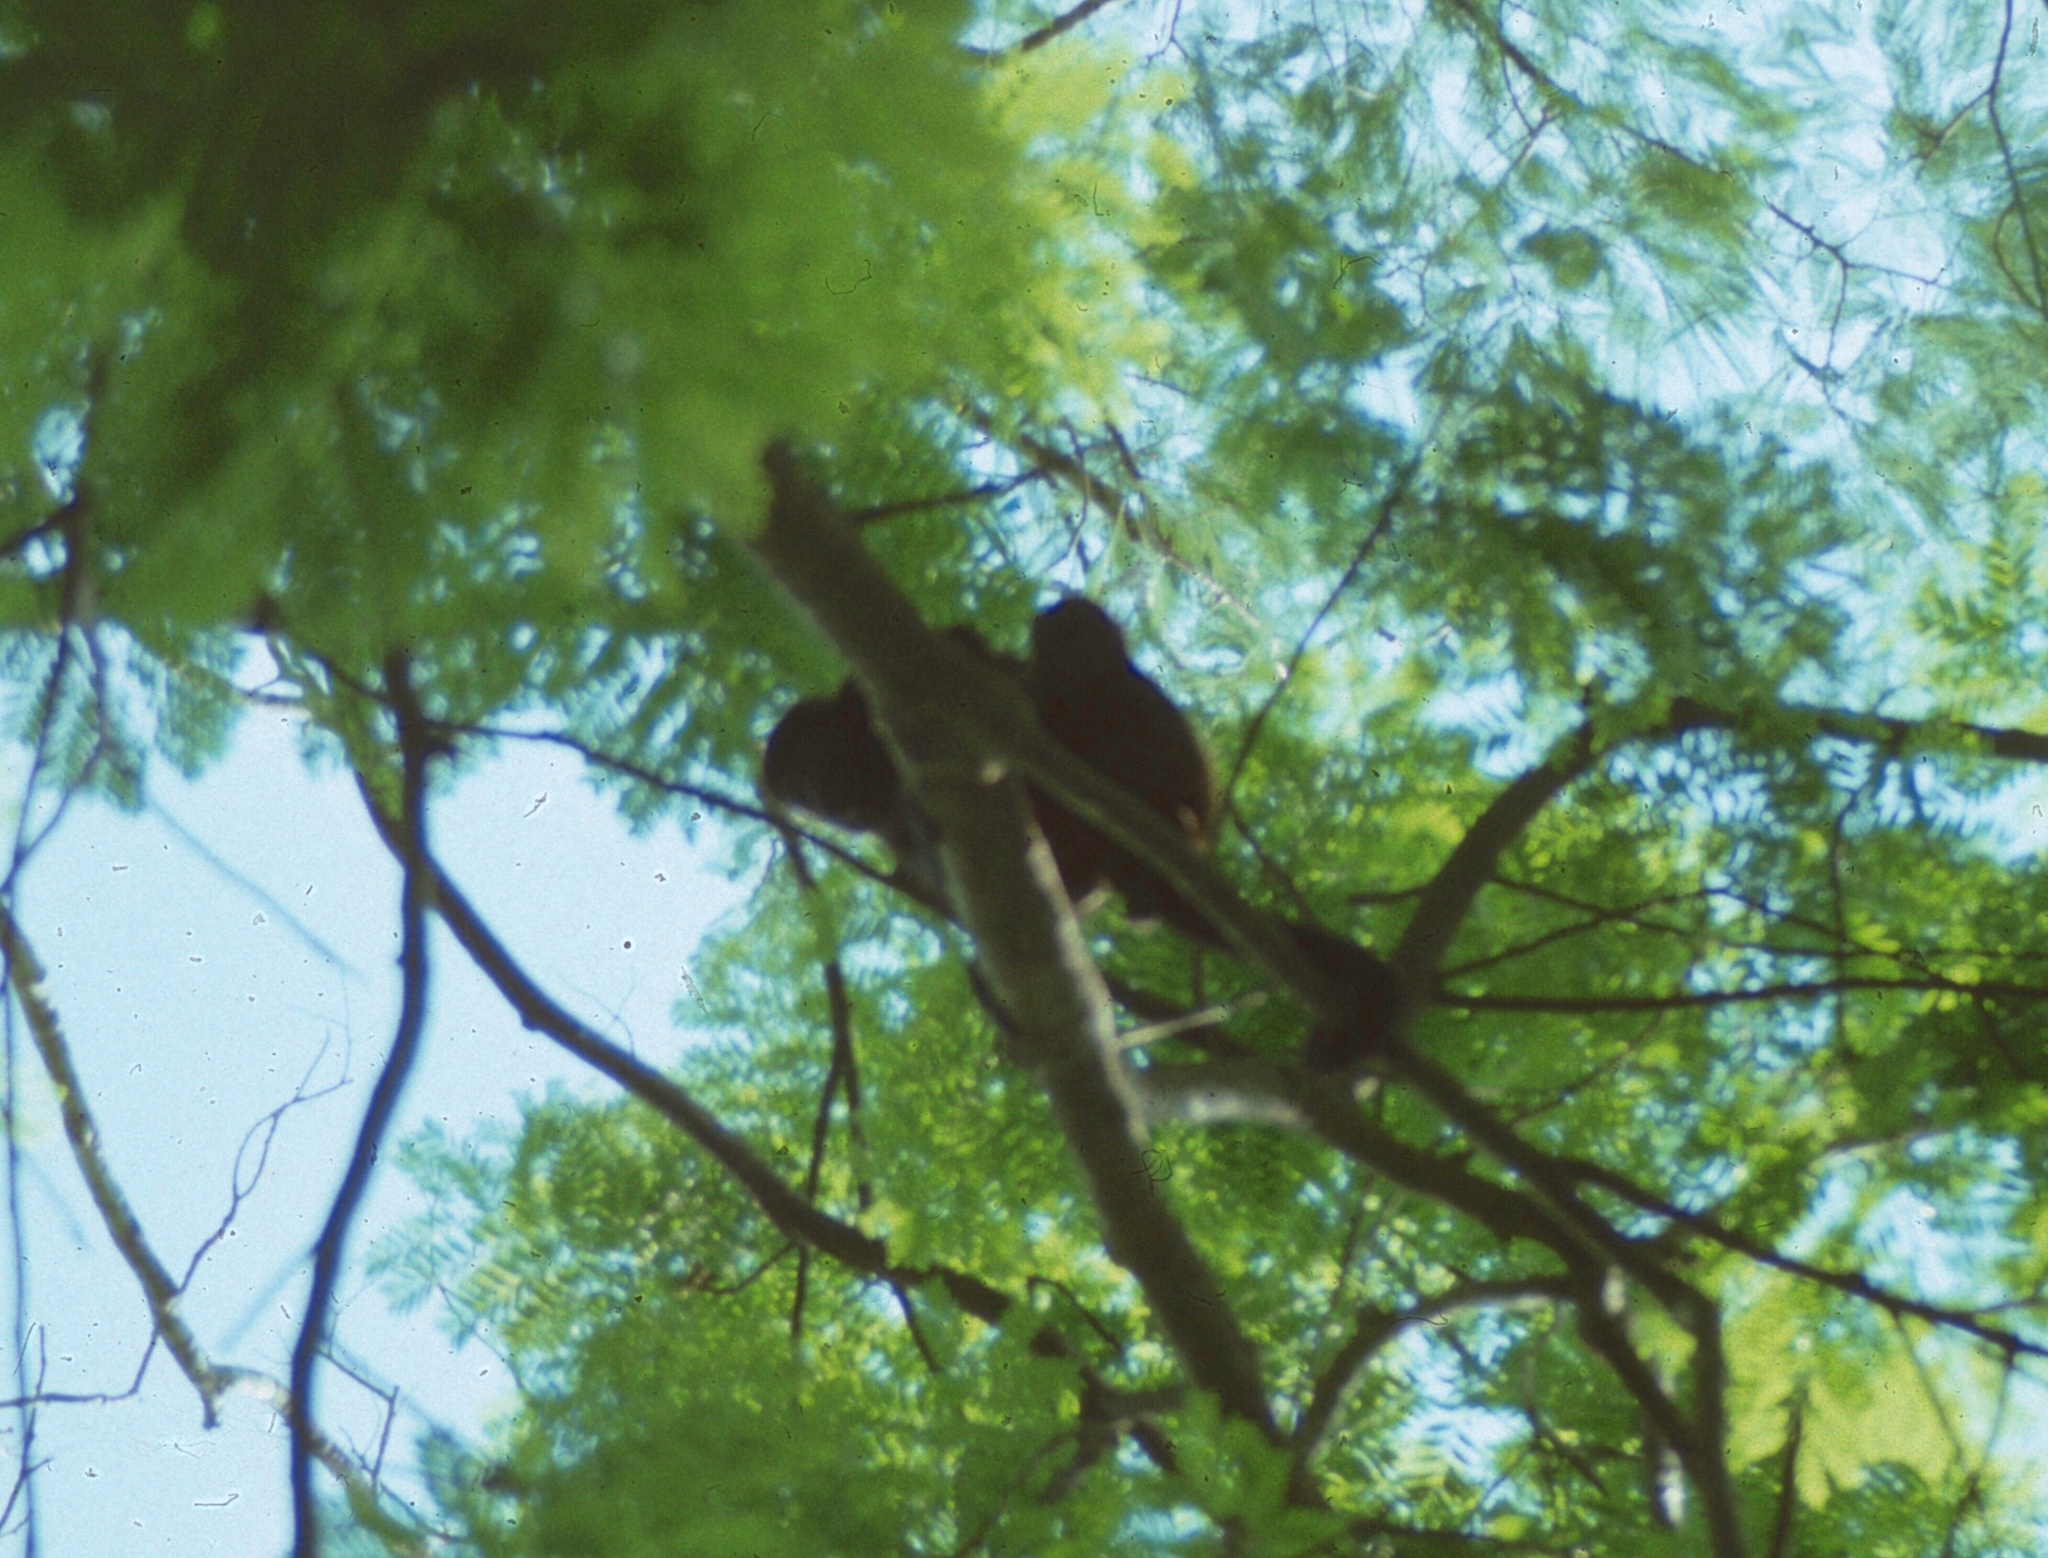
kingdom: Animalia
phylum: Chordata
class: Mammalia
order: Primates
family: Atelidae
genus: Alouatta
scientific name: Alouatta palliata
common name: Mantled howler
